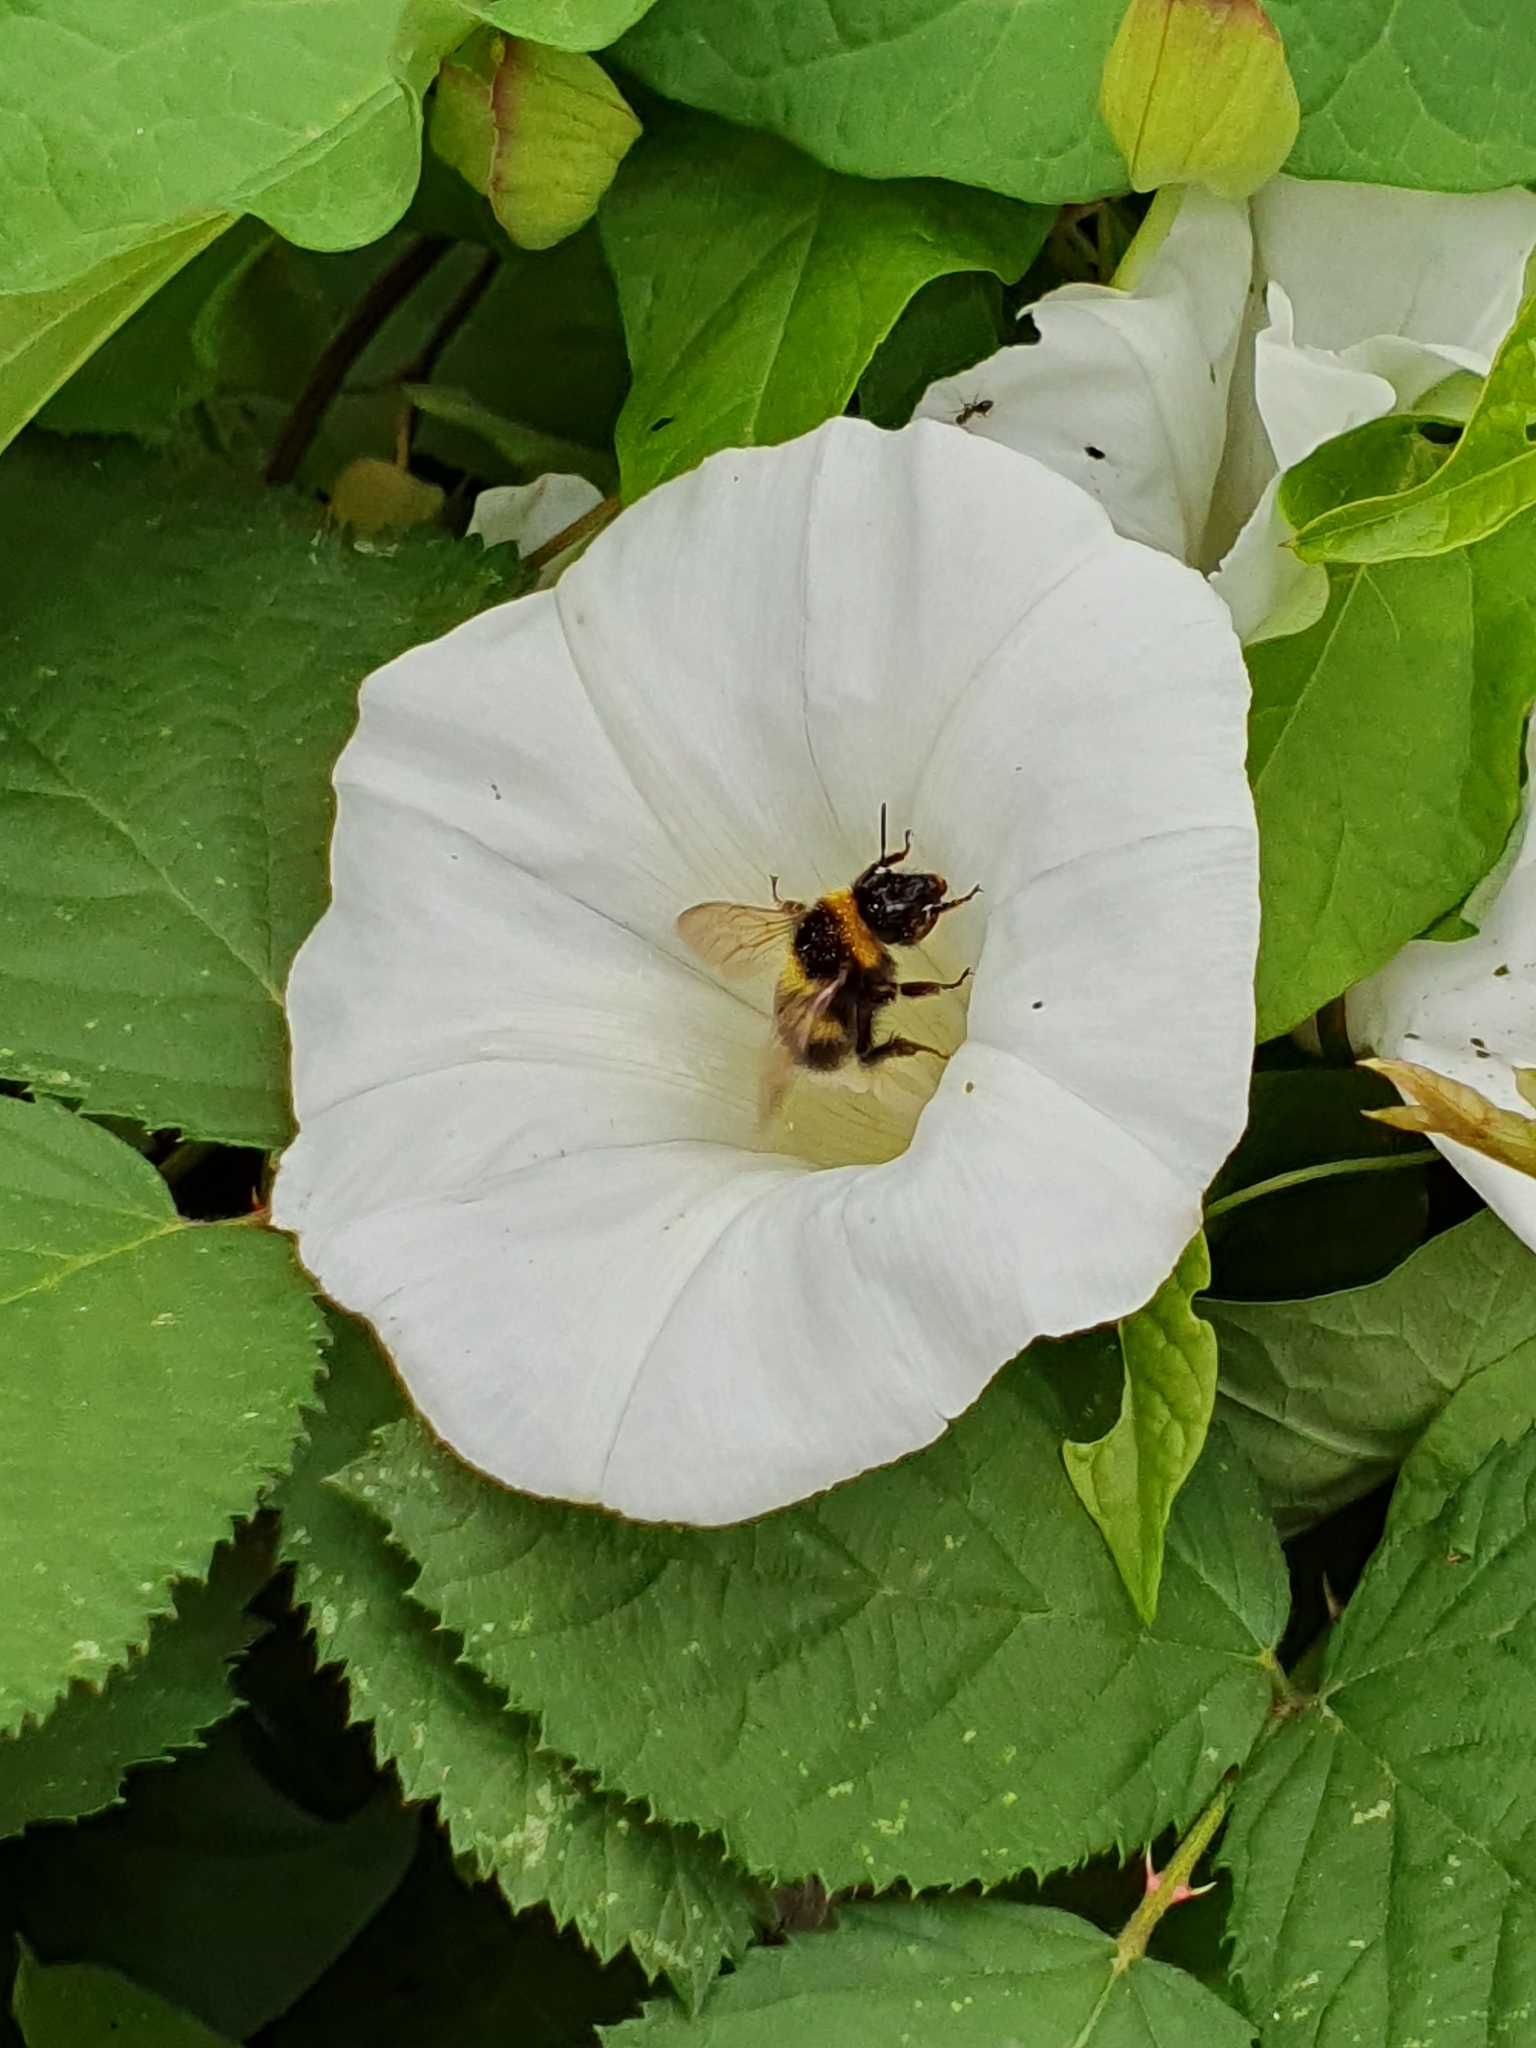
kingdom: Animalia
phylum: Arthropoda
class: Insecta
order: Hymenoptera
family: Apidae
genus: Bombus
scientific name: Bombus hortorum
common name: Garden bumblebee
